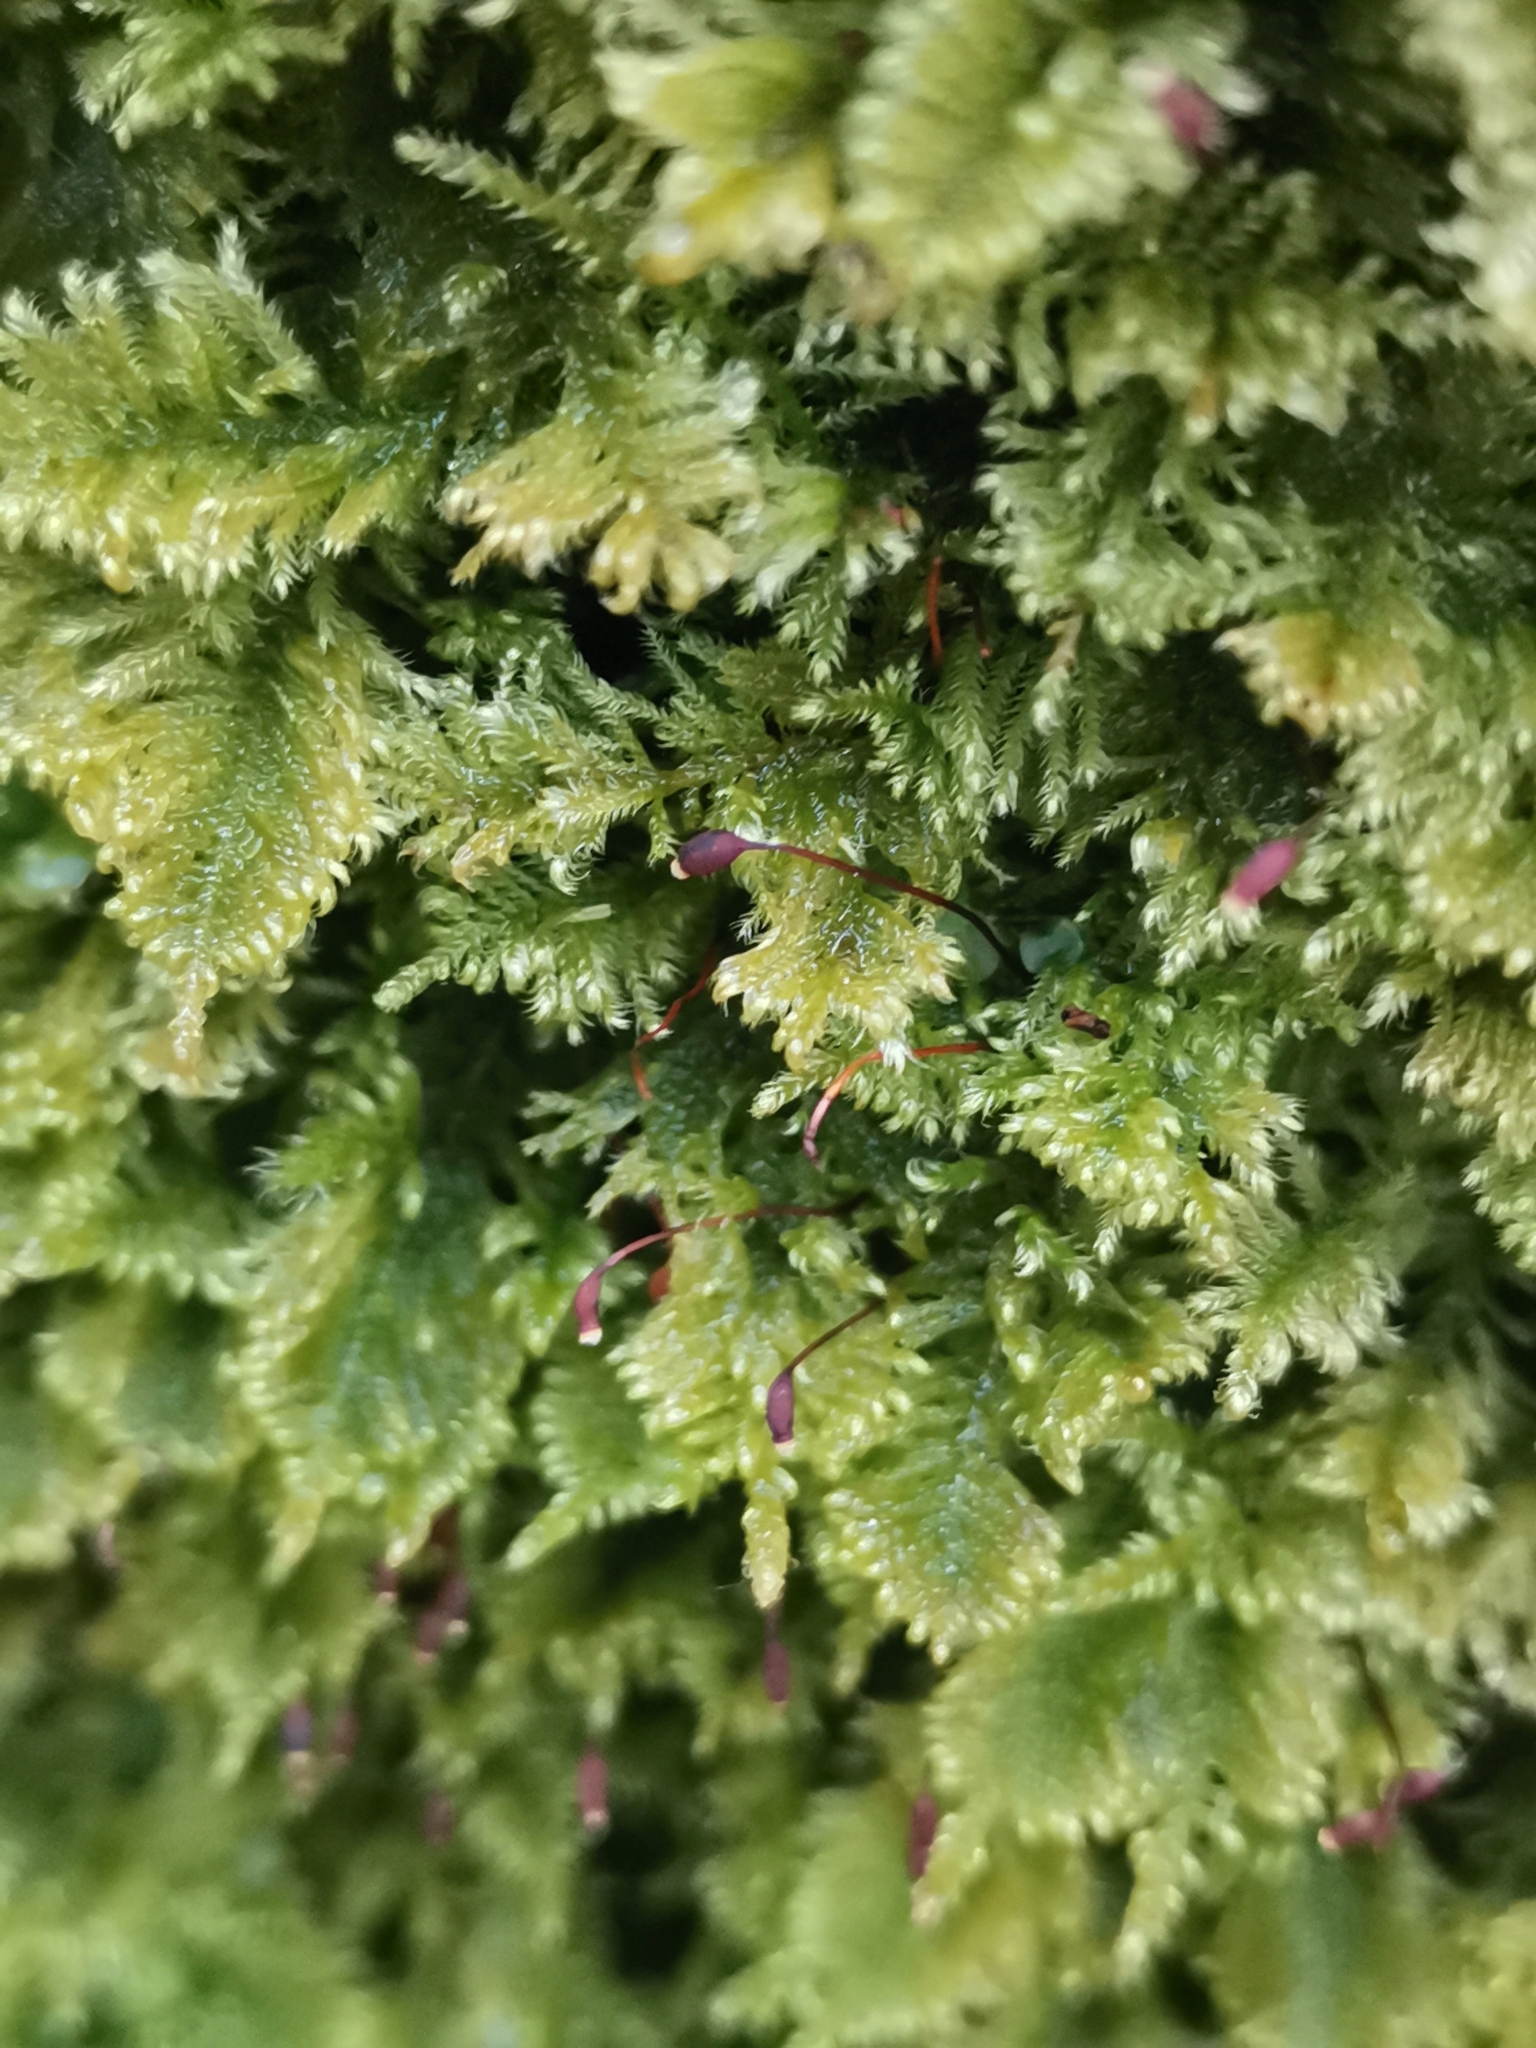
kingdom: Plantae
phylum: Bryophyta
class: Bryopsida
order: Hypnales
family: Myuriaceae
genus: Ctenidium
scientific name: Ctenidium molluscum
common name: Chalk comb-moss
